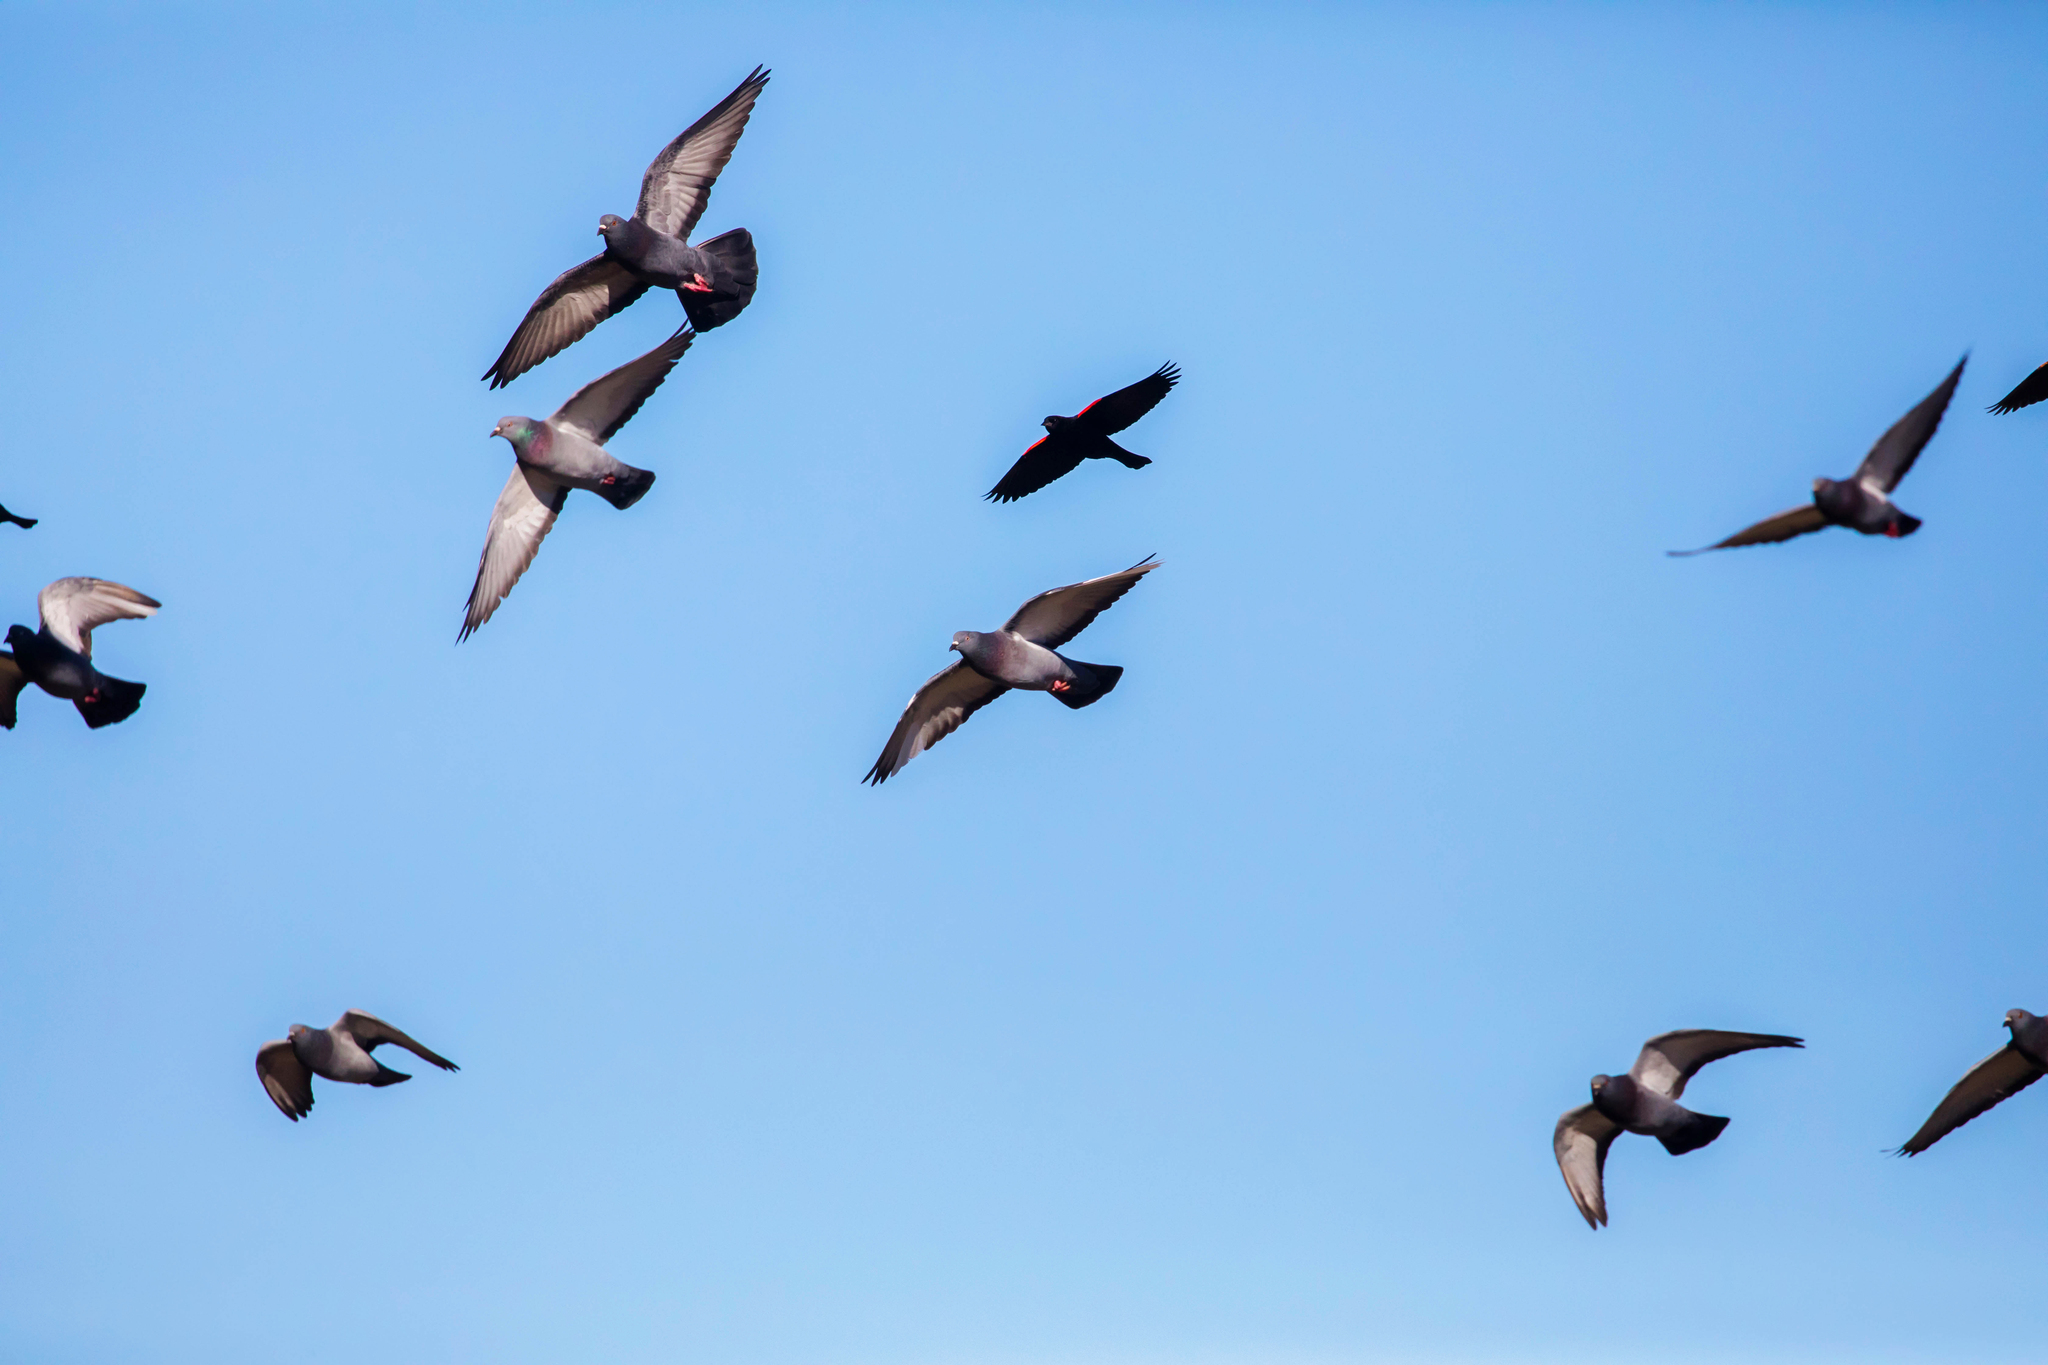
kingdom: Animalia
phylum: Chordata
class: Aves
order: Columbiformes
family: Columbidae
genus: Columba
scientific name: Columba livia
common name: Rock pigeon
